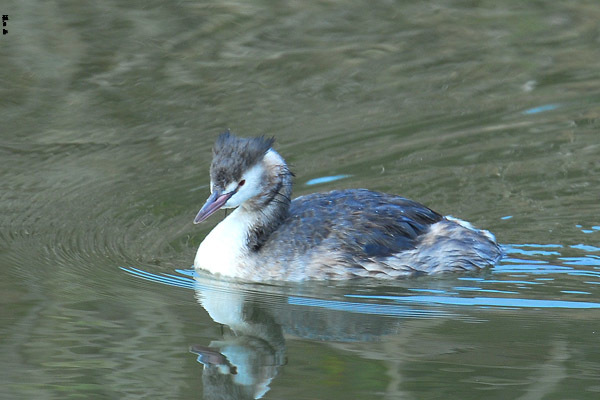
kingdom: Animalia
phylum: Chordata
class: Aves
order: Podicipediformes
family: Podicipedidae
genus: Podiceps
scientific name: Podiceps cristatus
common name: Great crested grebe
